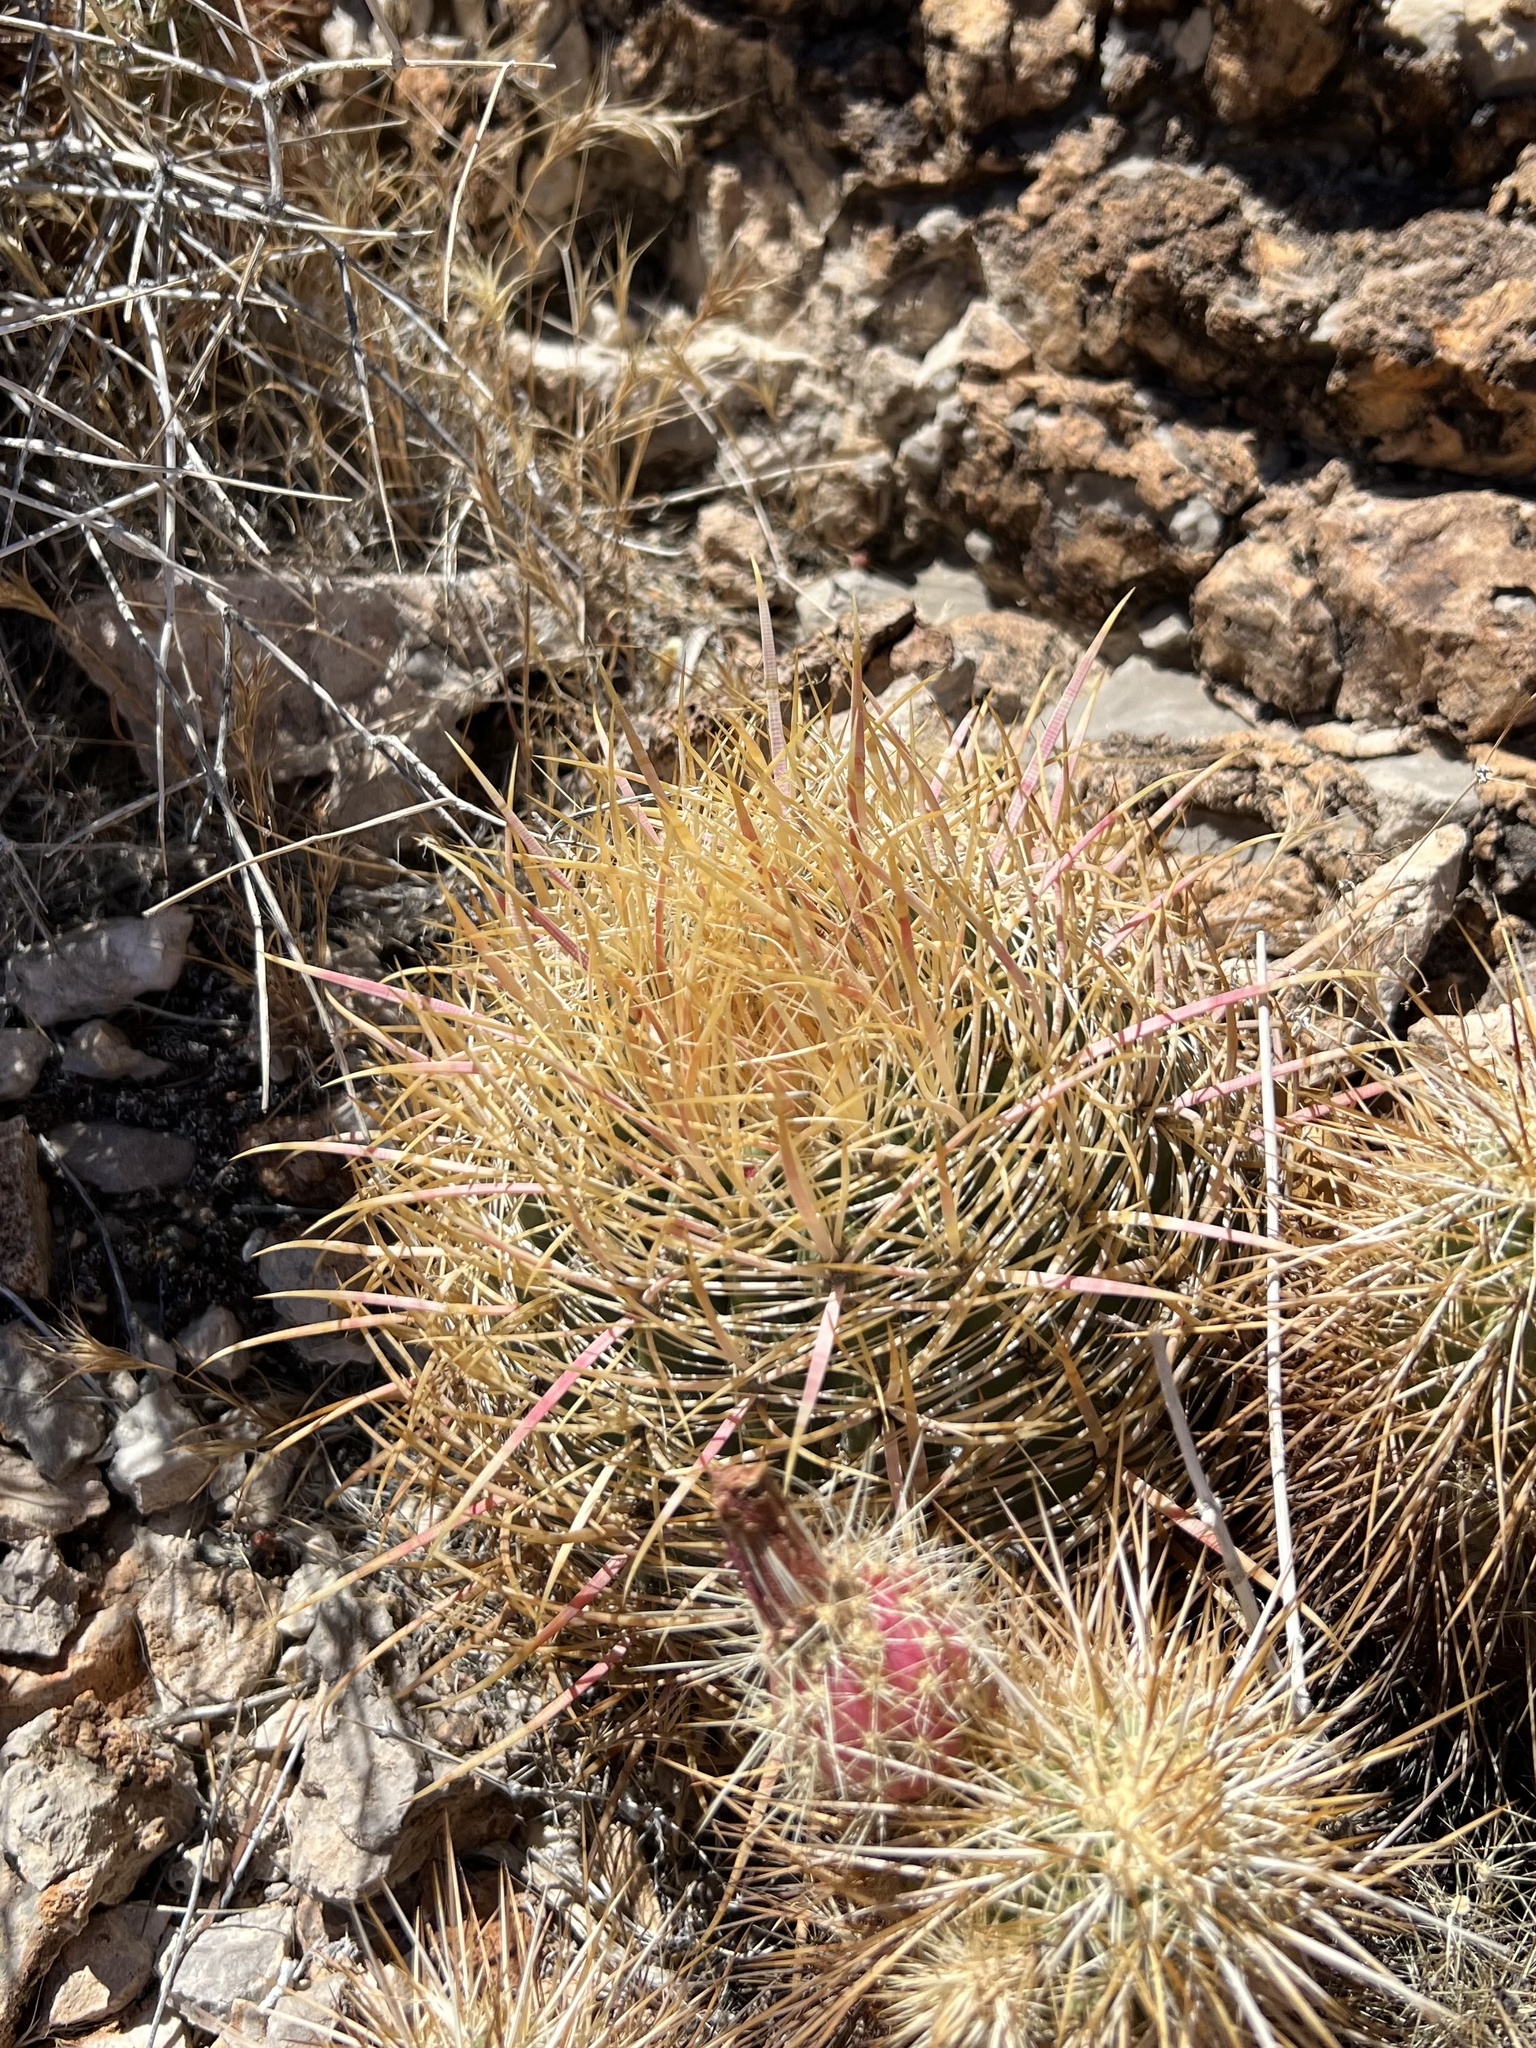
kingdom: Plantae
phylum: Tracheophyta
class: Magnoliopsida
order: Caryophyllales
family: Cactaceae
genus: Ferocactus
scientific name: Ferocactus cylindraceus
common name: California barrel cactus
